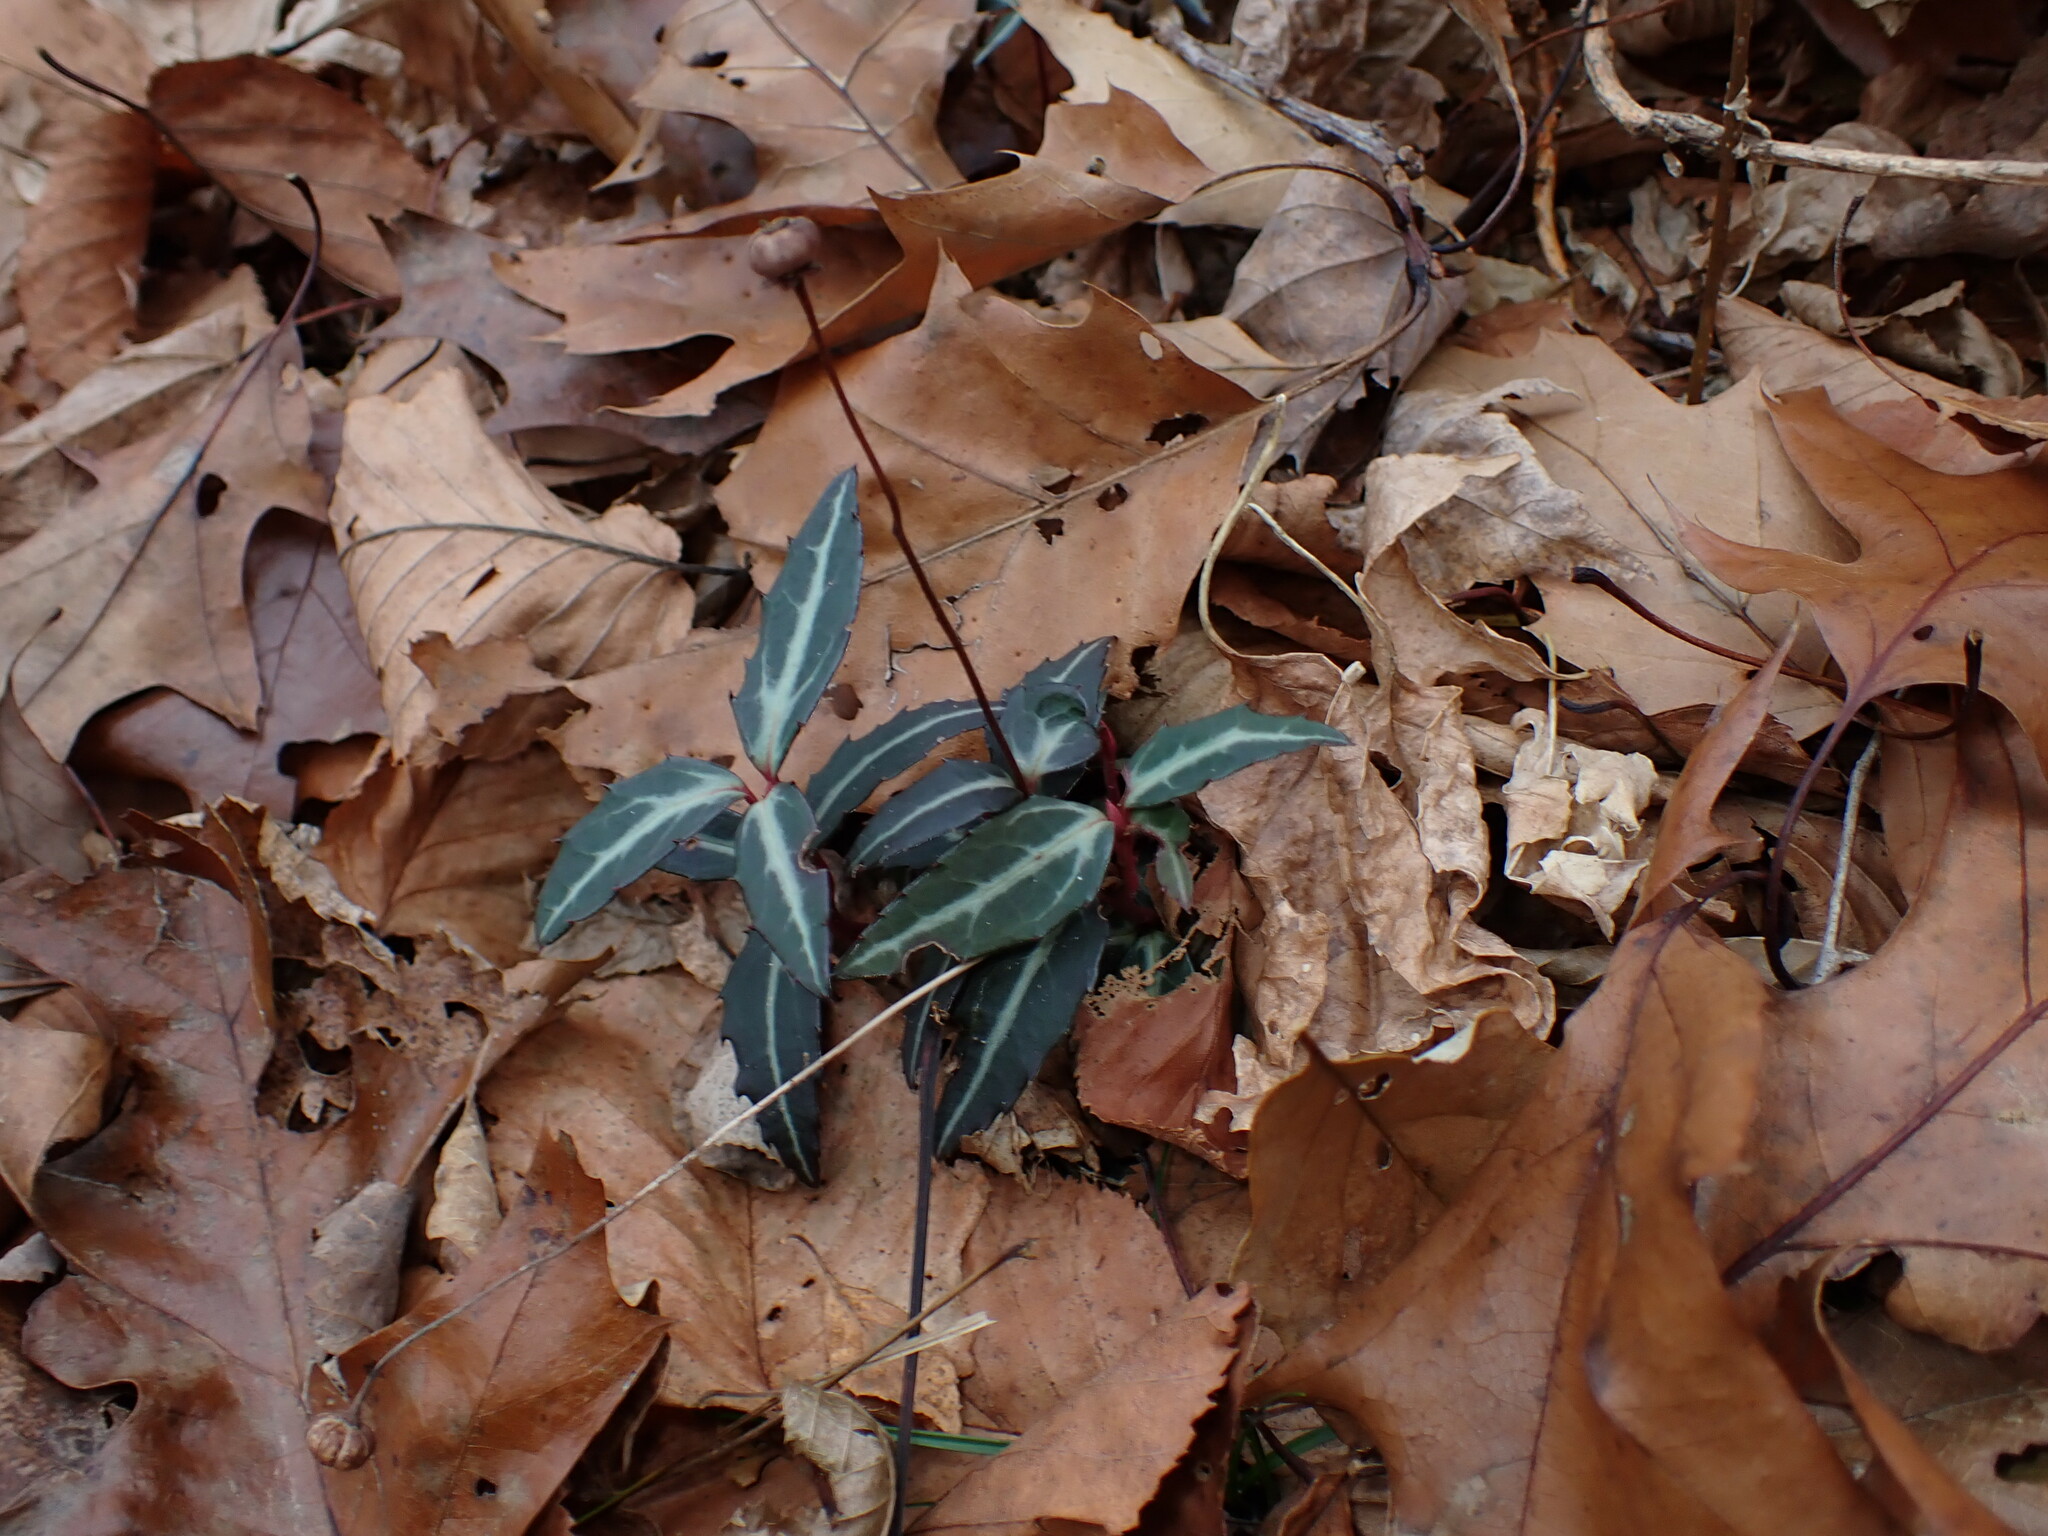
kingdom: Plantae
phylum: Tracheophyta
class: Magnoliopsida
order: Ericales
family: Ericaceae
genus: Chimaphila
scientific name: Chimaphila maculata
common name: Spotted pipsissewa
